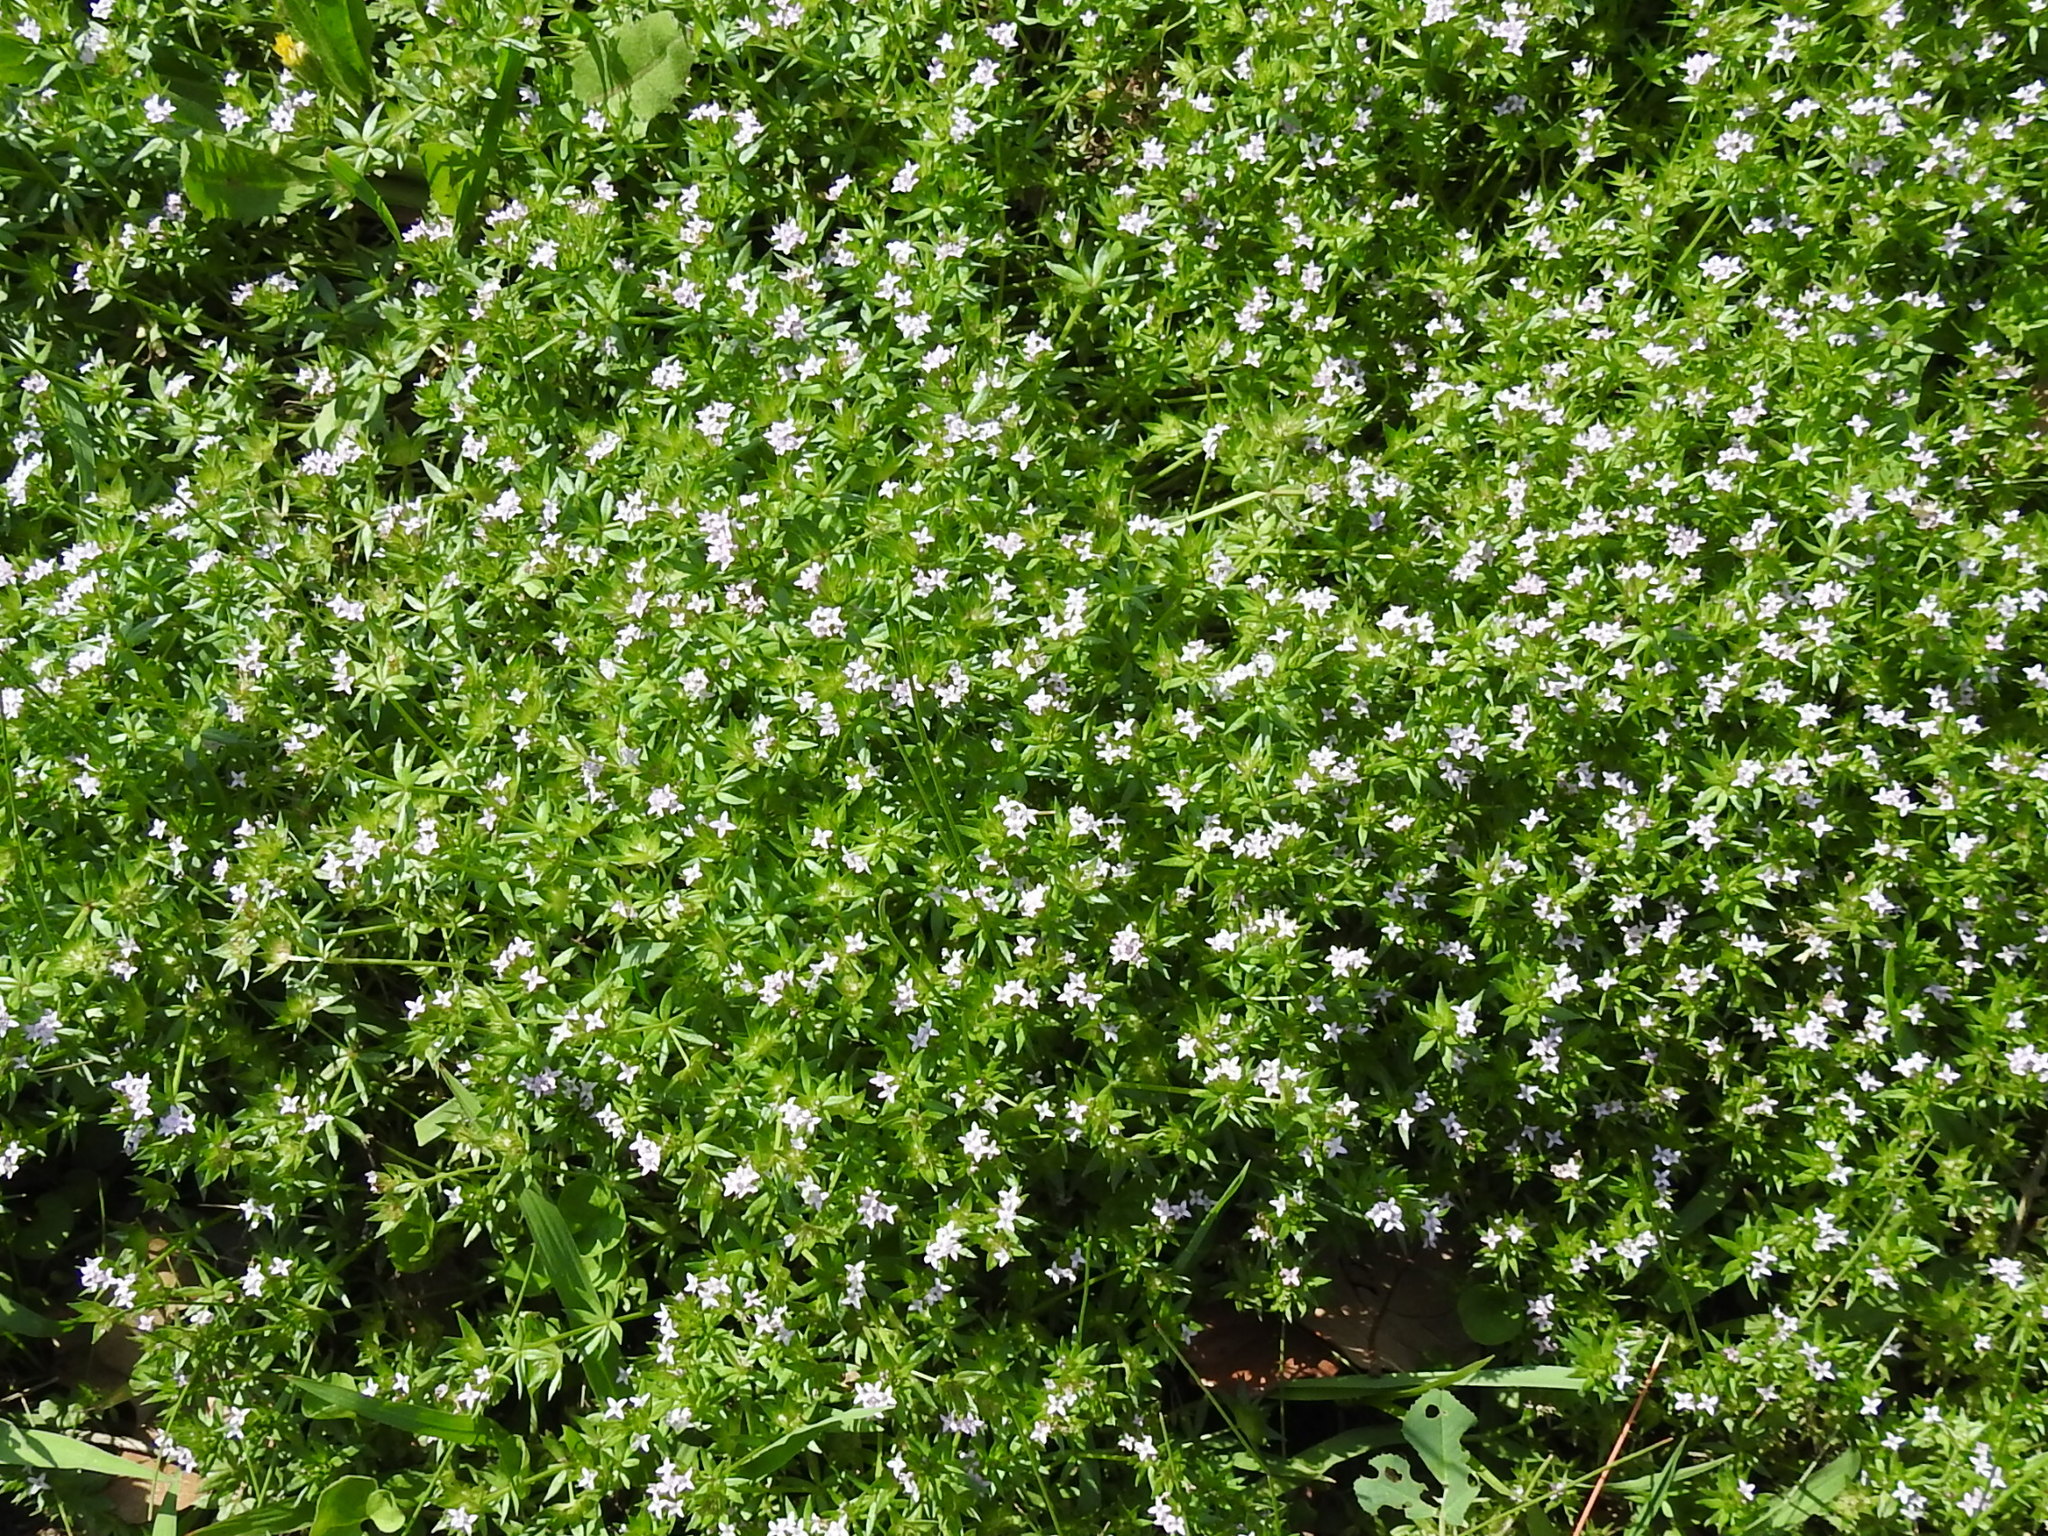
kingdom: Plantae
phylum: Tracheophyta
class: Magnoliopsida
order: Gentianales
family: Rubiaceae
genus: Sherardia
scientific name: Sherardia arvensis
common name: Field madder
